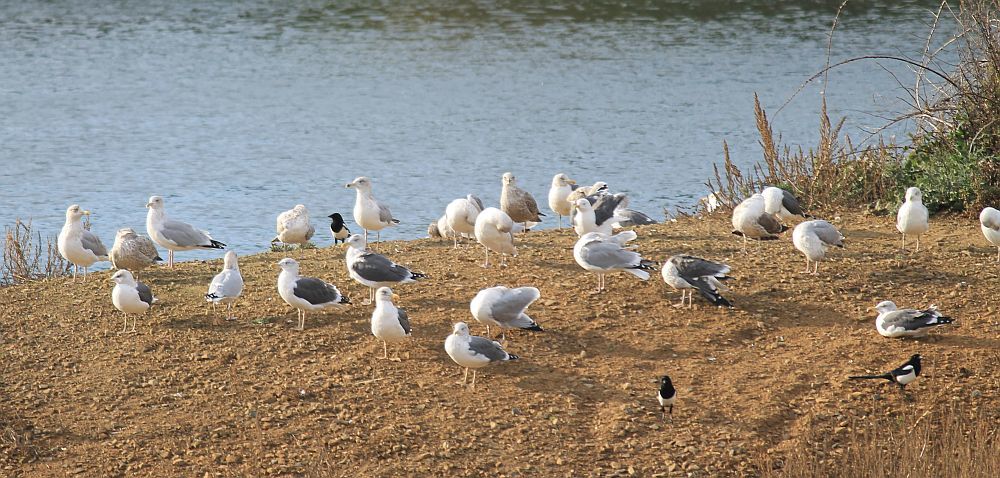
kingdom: Animalia
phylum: Chordata
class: Aves
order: Charadriiformes
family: Laridae
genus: Larus
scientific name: Larus argentatus
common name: Herring gull
